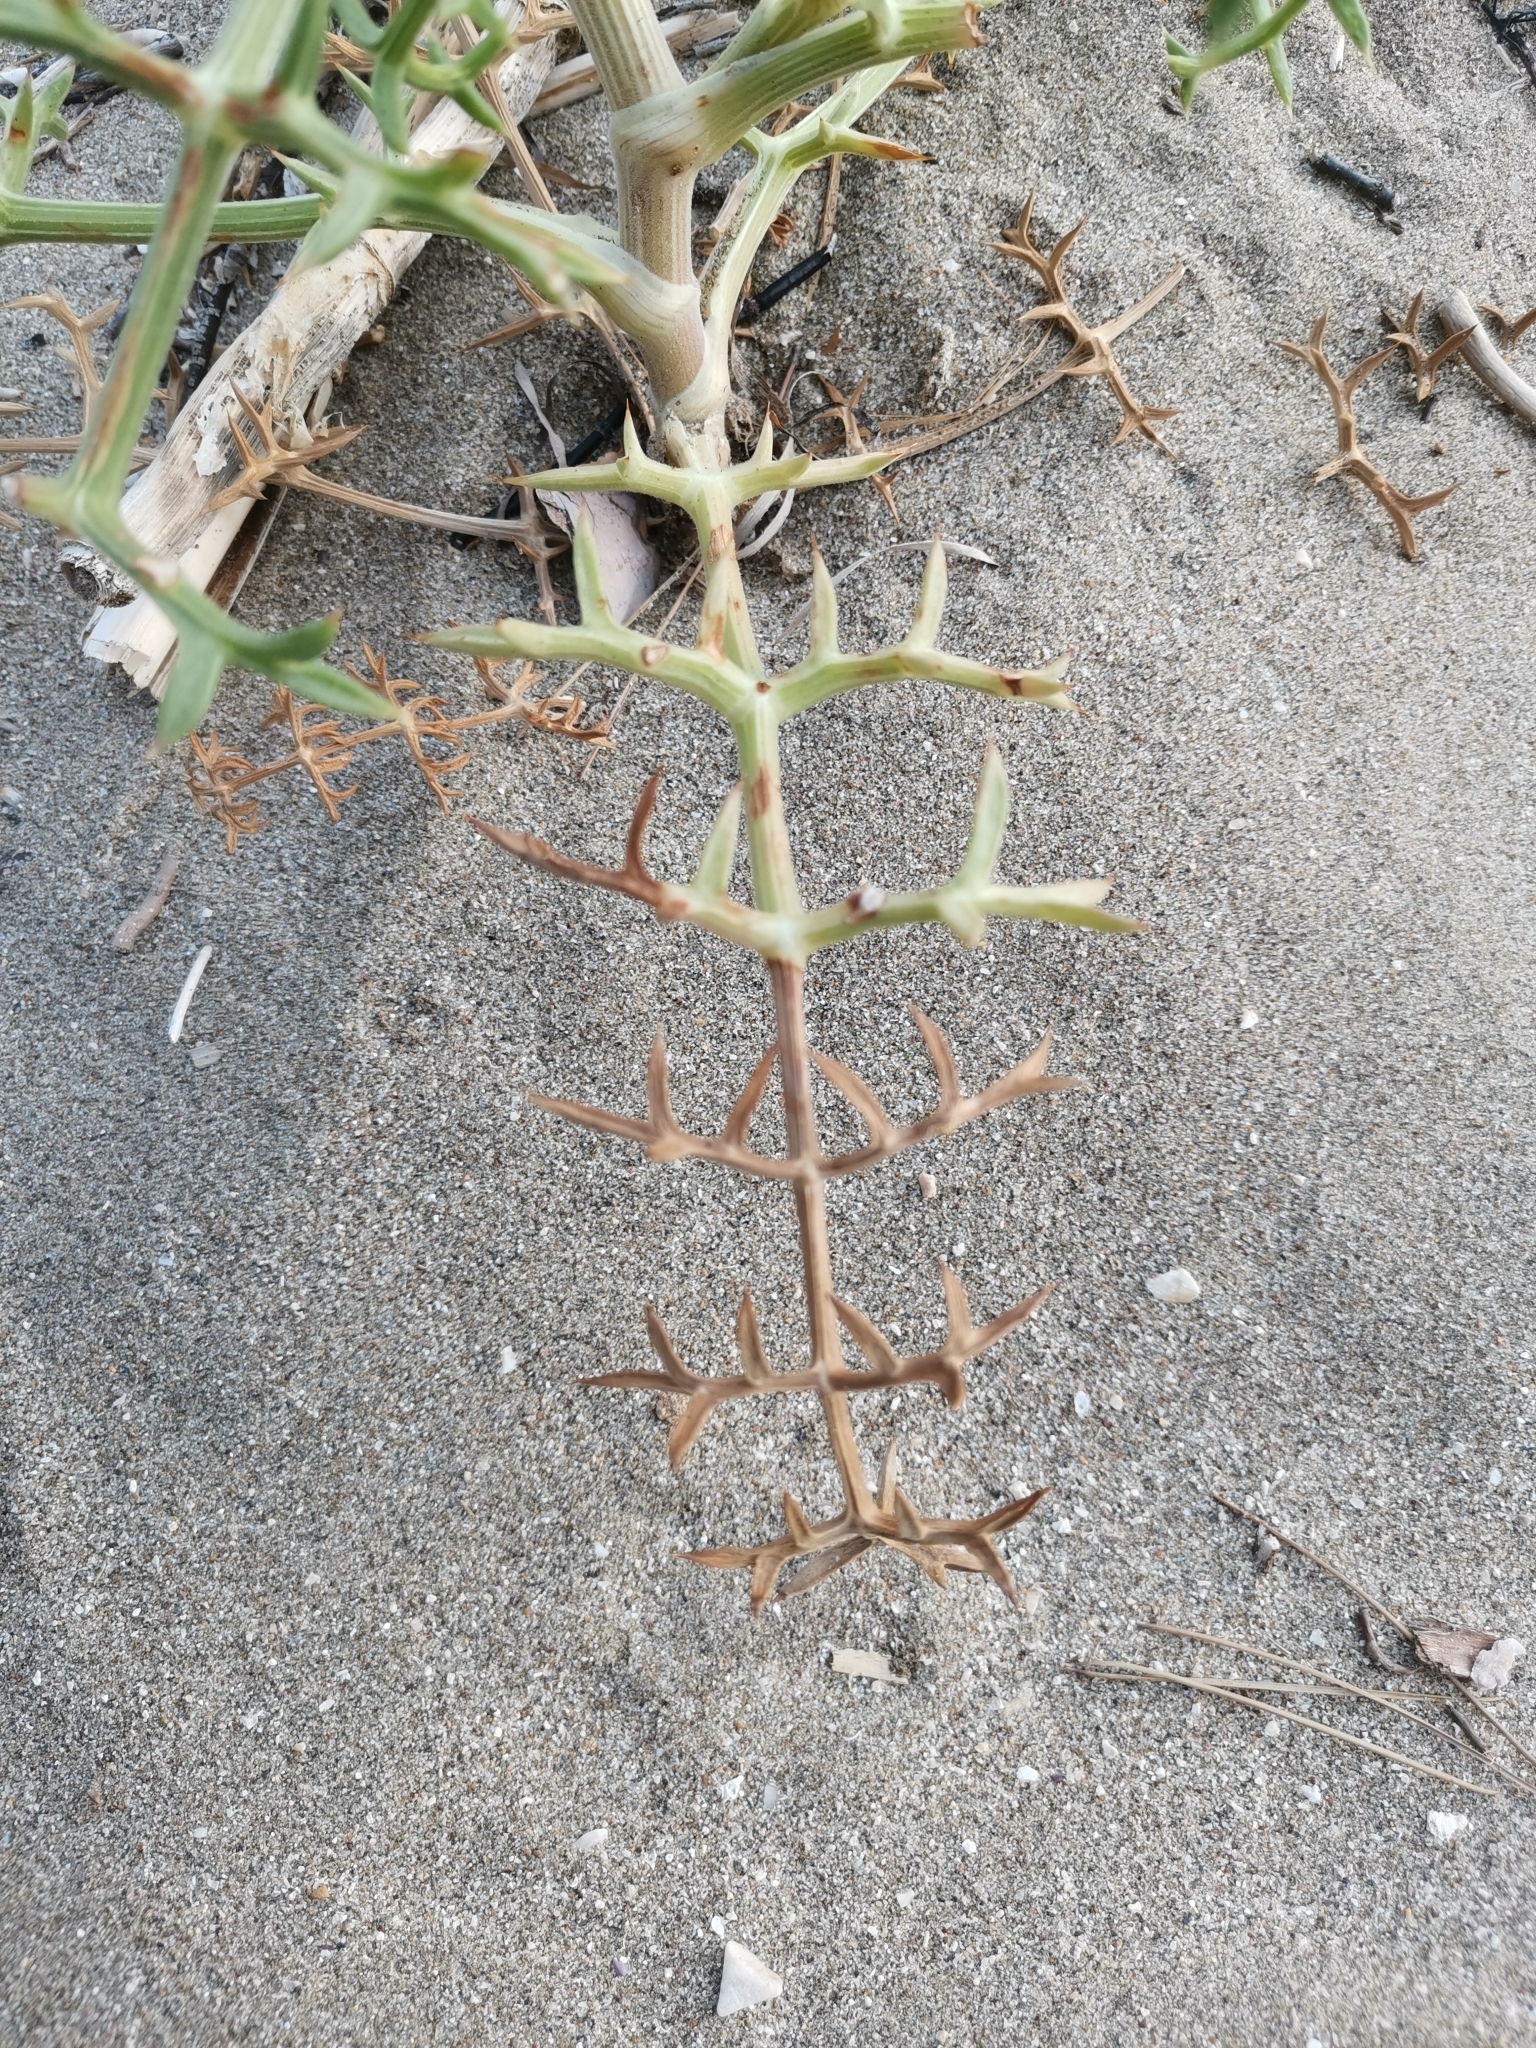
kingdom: Plantae
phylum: Tracheophyta
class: Magnoliopsida
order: Apiales
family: Apiaceae
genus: Echinophora
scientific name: Echinophora spinosa
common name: Prickly samphire
